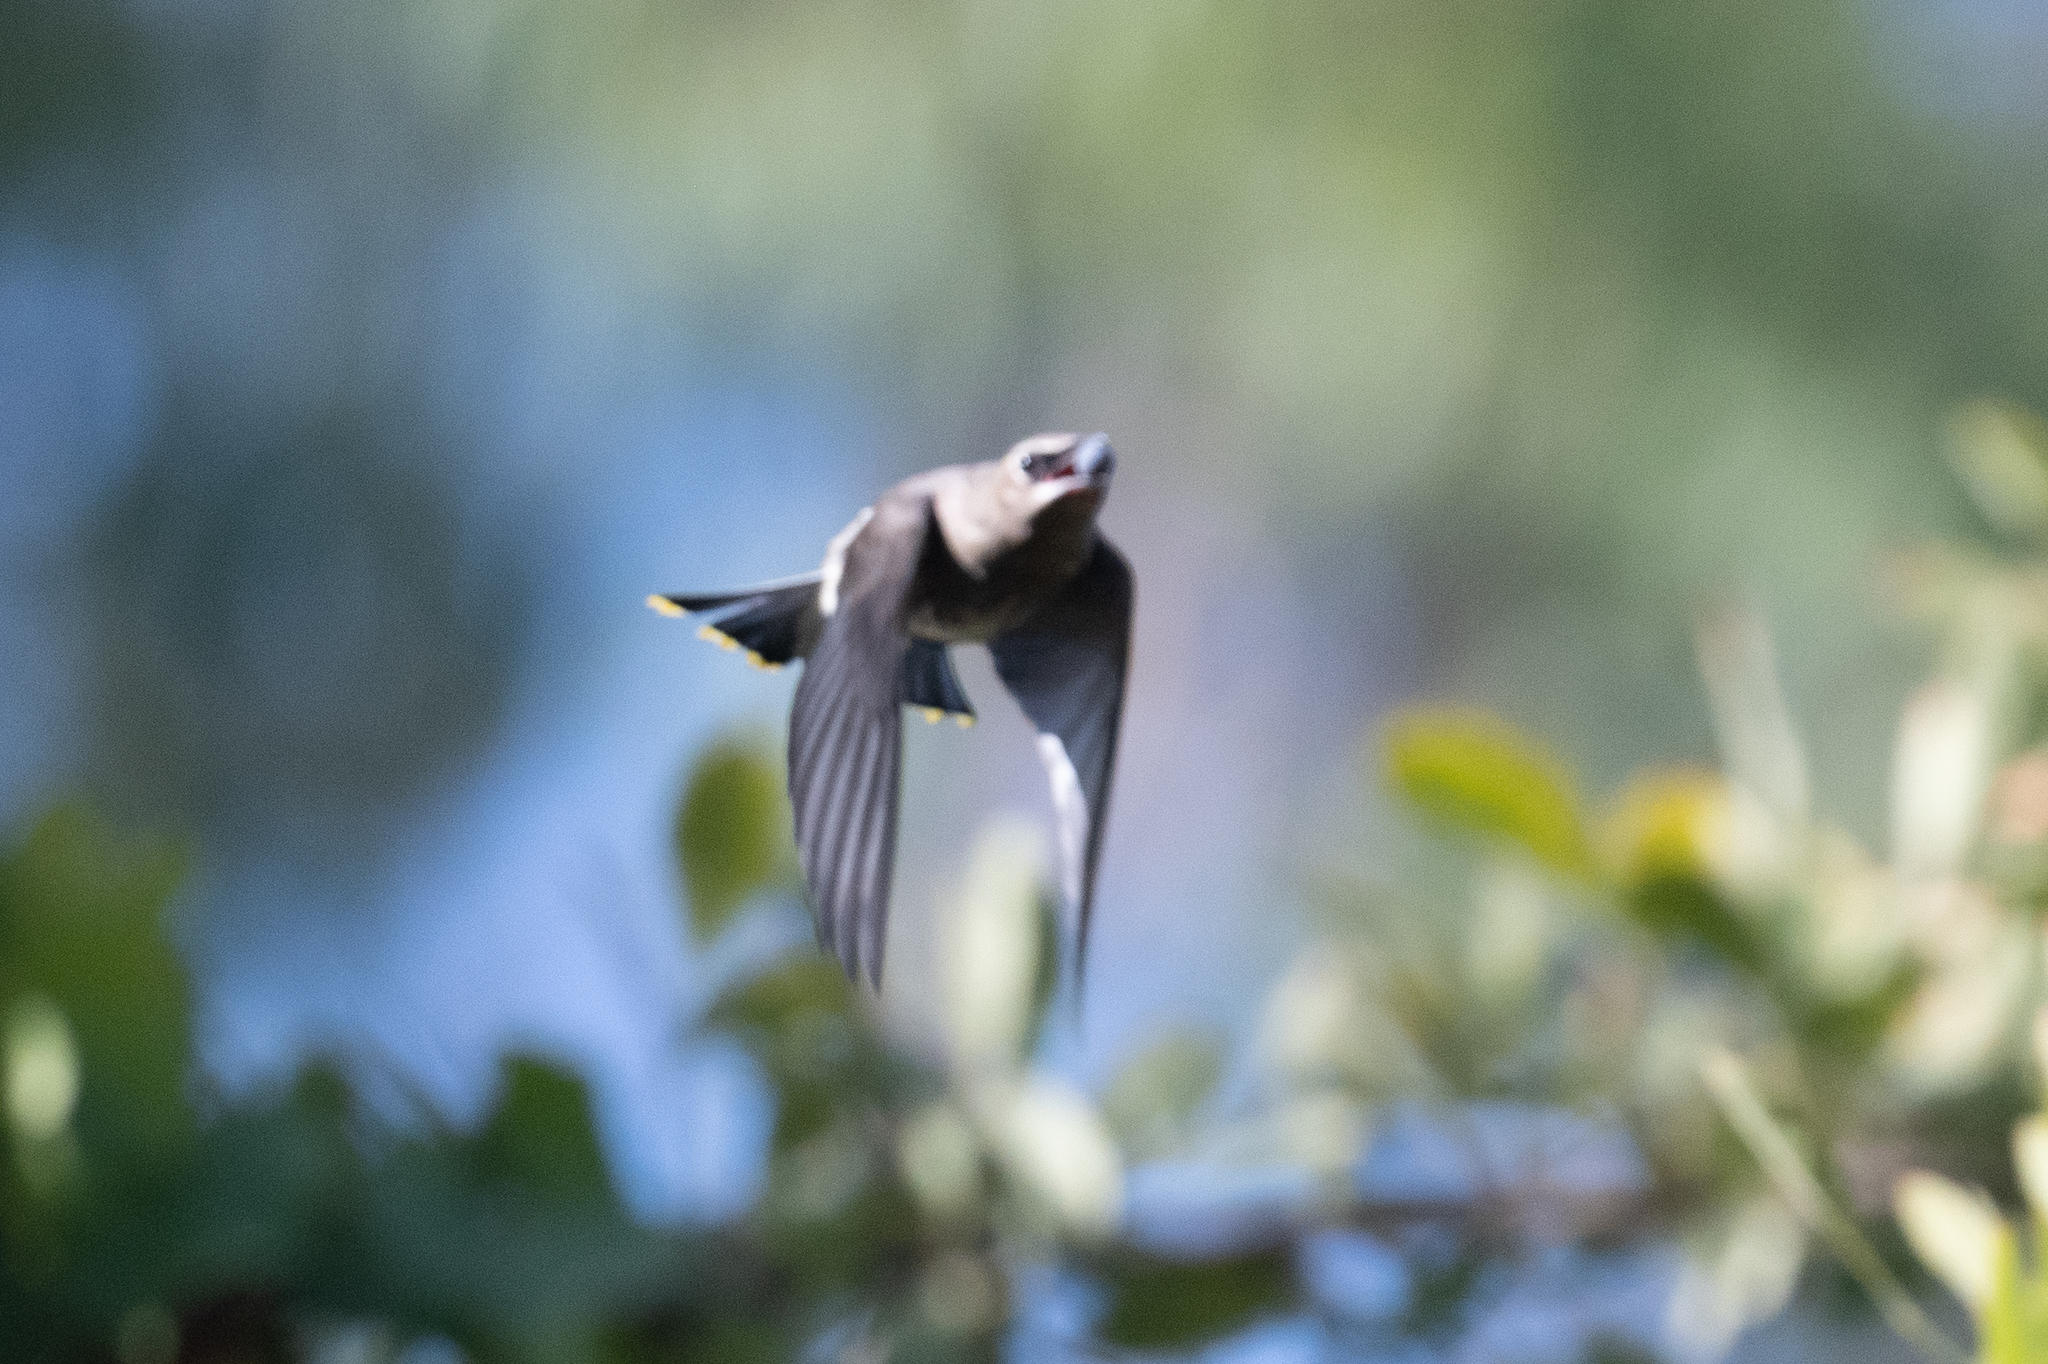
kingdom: Animalia
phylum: Chordata
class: Aves
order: Passeriformes
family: Bombycillidae
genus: Bombycilla
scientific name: Bombycilla cedrorum
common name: Cedar waxwing
